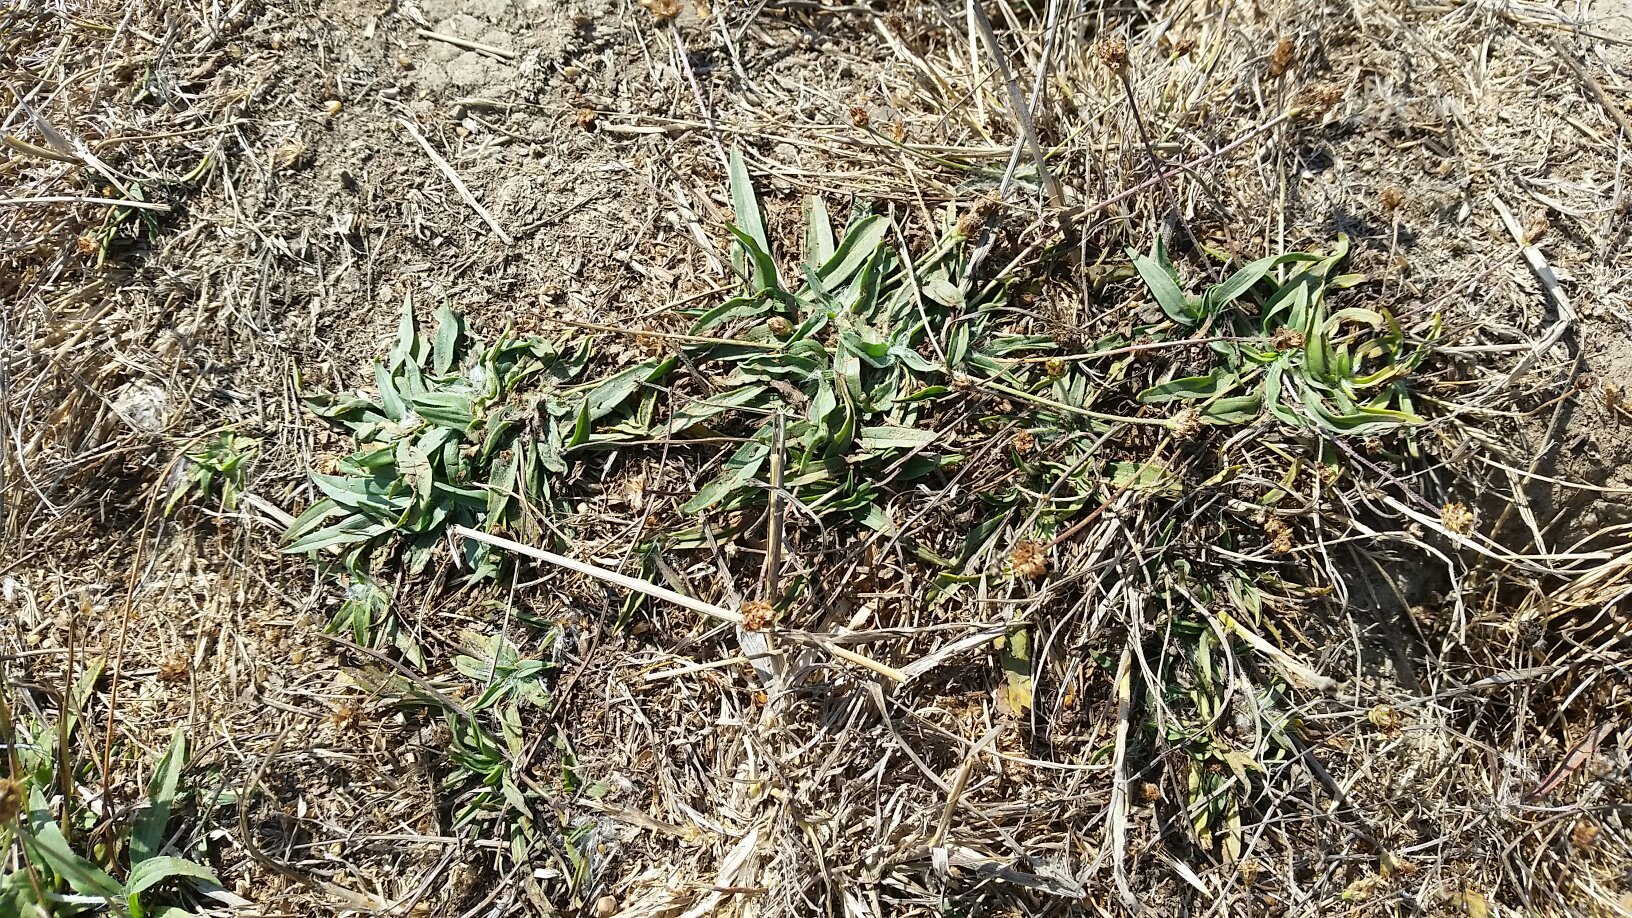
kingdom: Plantae
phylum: Tracheophyta
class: Magnoliopsida
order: Lamiales
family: Plantaginaceae
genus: Plantago
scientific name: Plantago lanceolata
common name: Ribwort plantain
